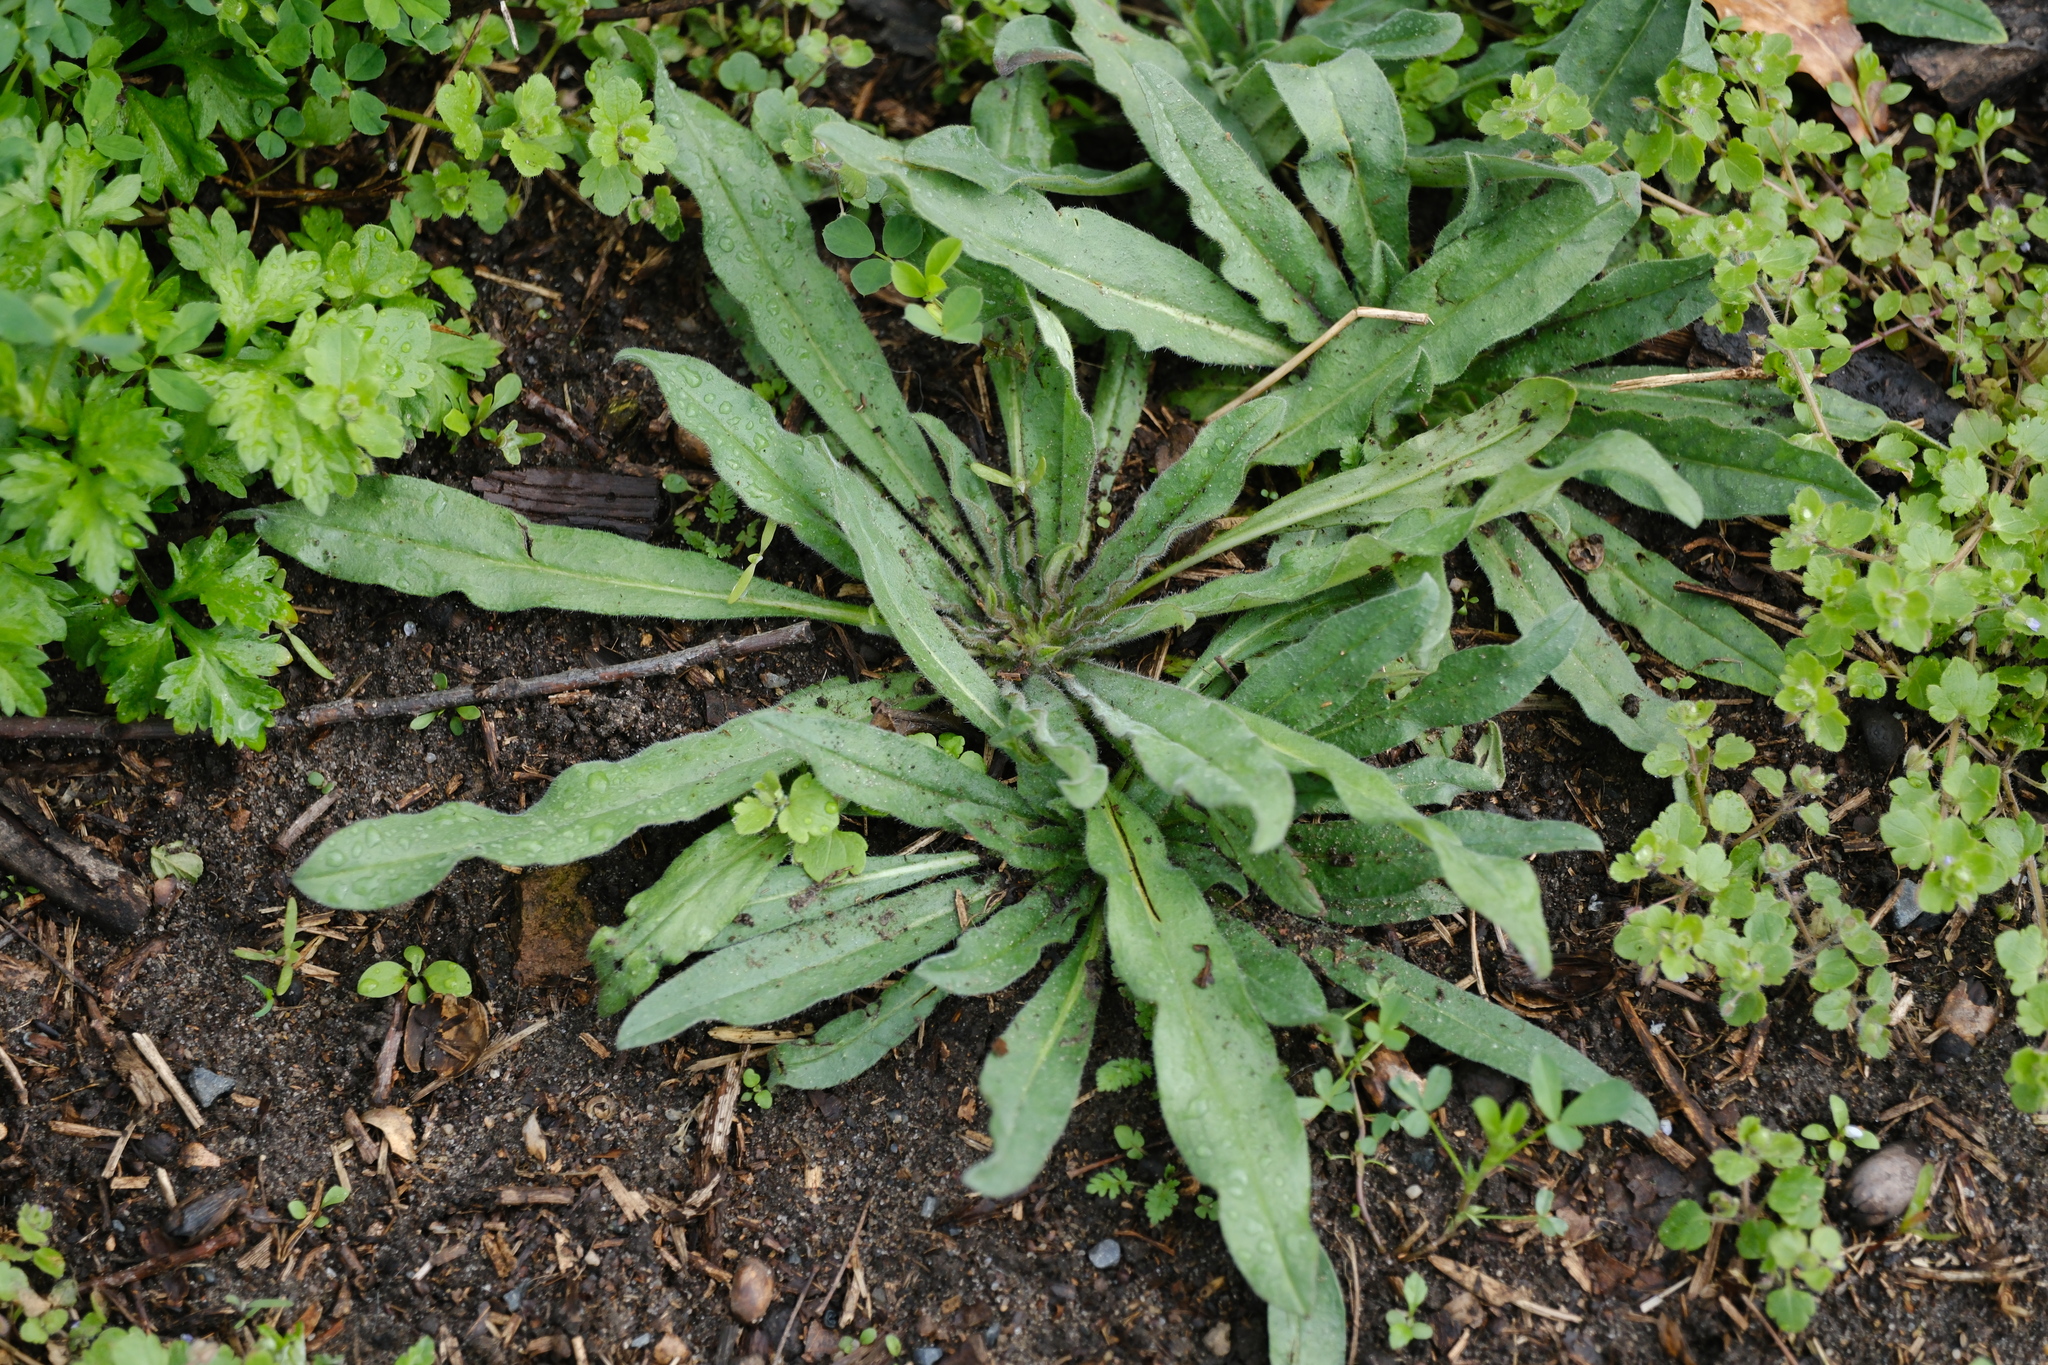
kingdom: Plantae
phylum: Tracheophyta
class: Magnoliopsida
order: Boraginales
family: Boraginaceae
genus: Echium
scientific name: Echium vulgare
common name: Common viper's bugloss
